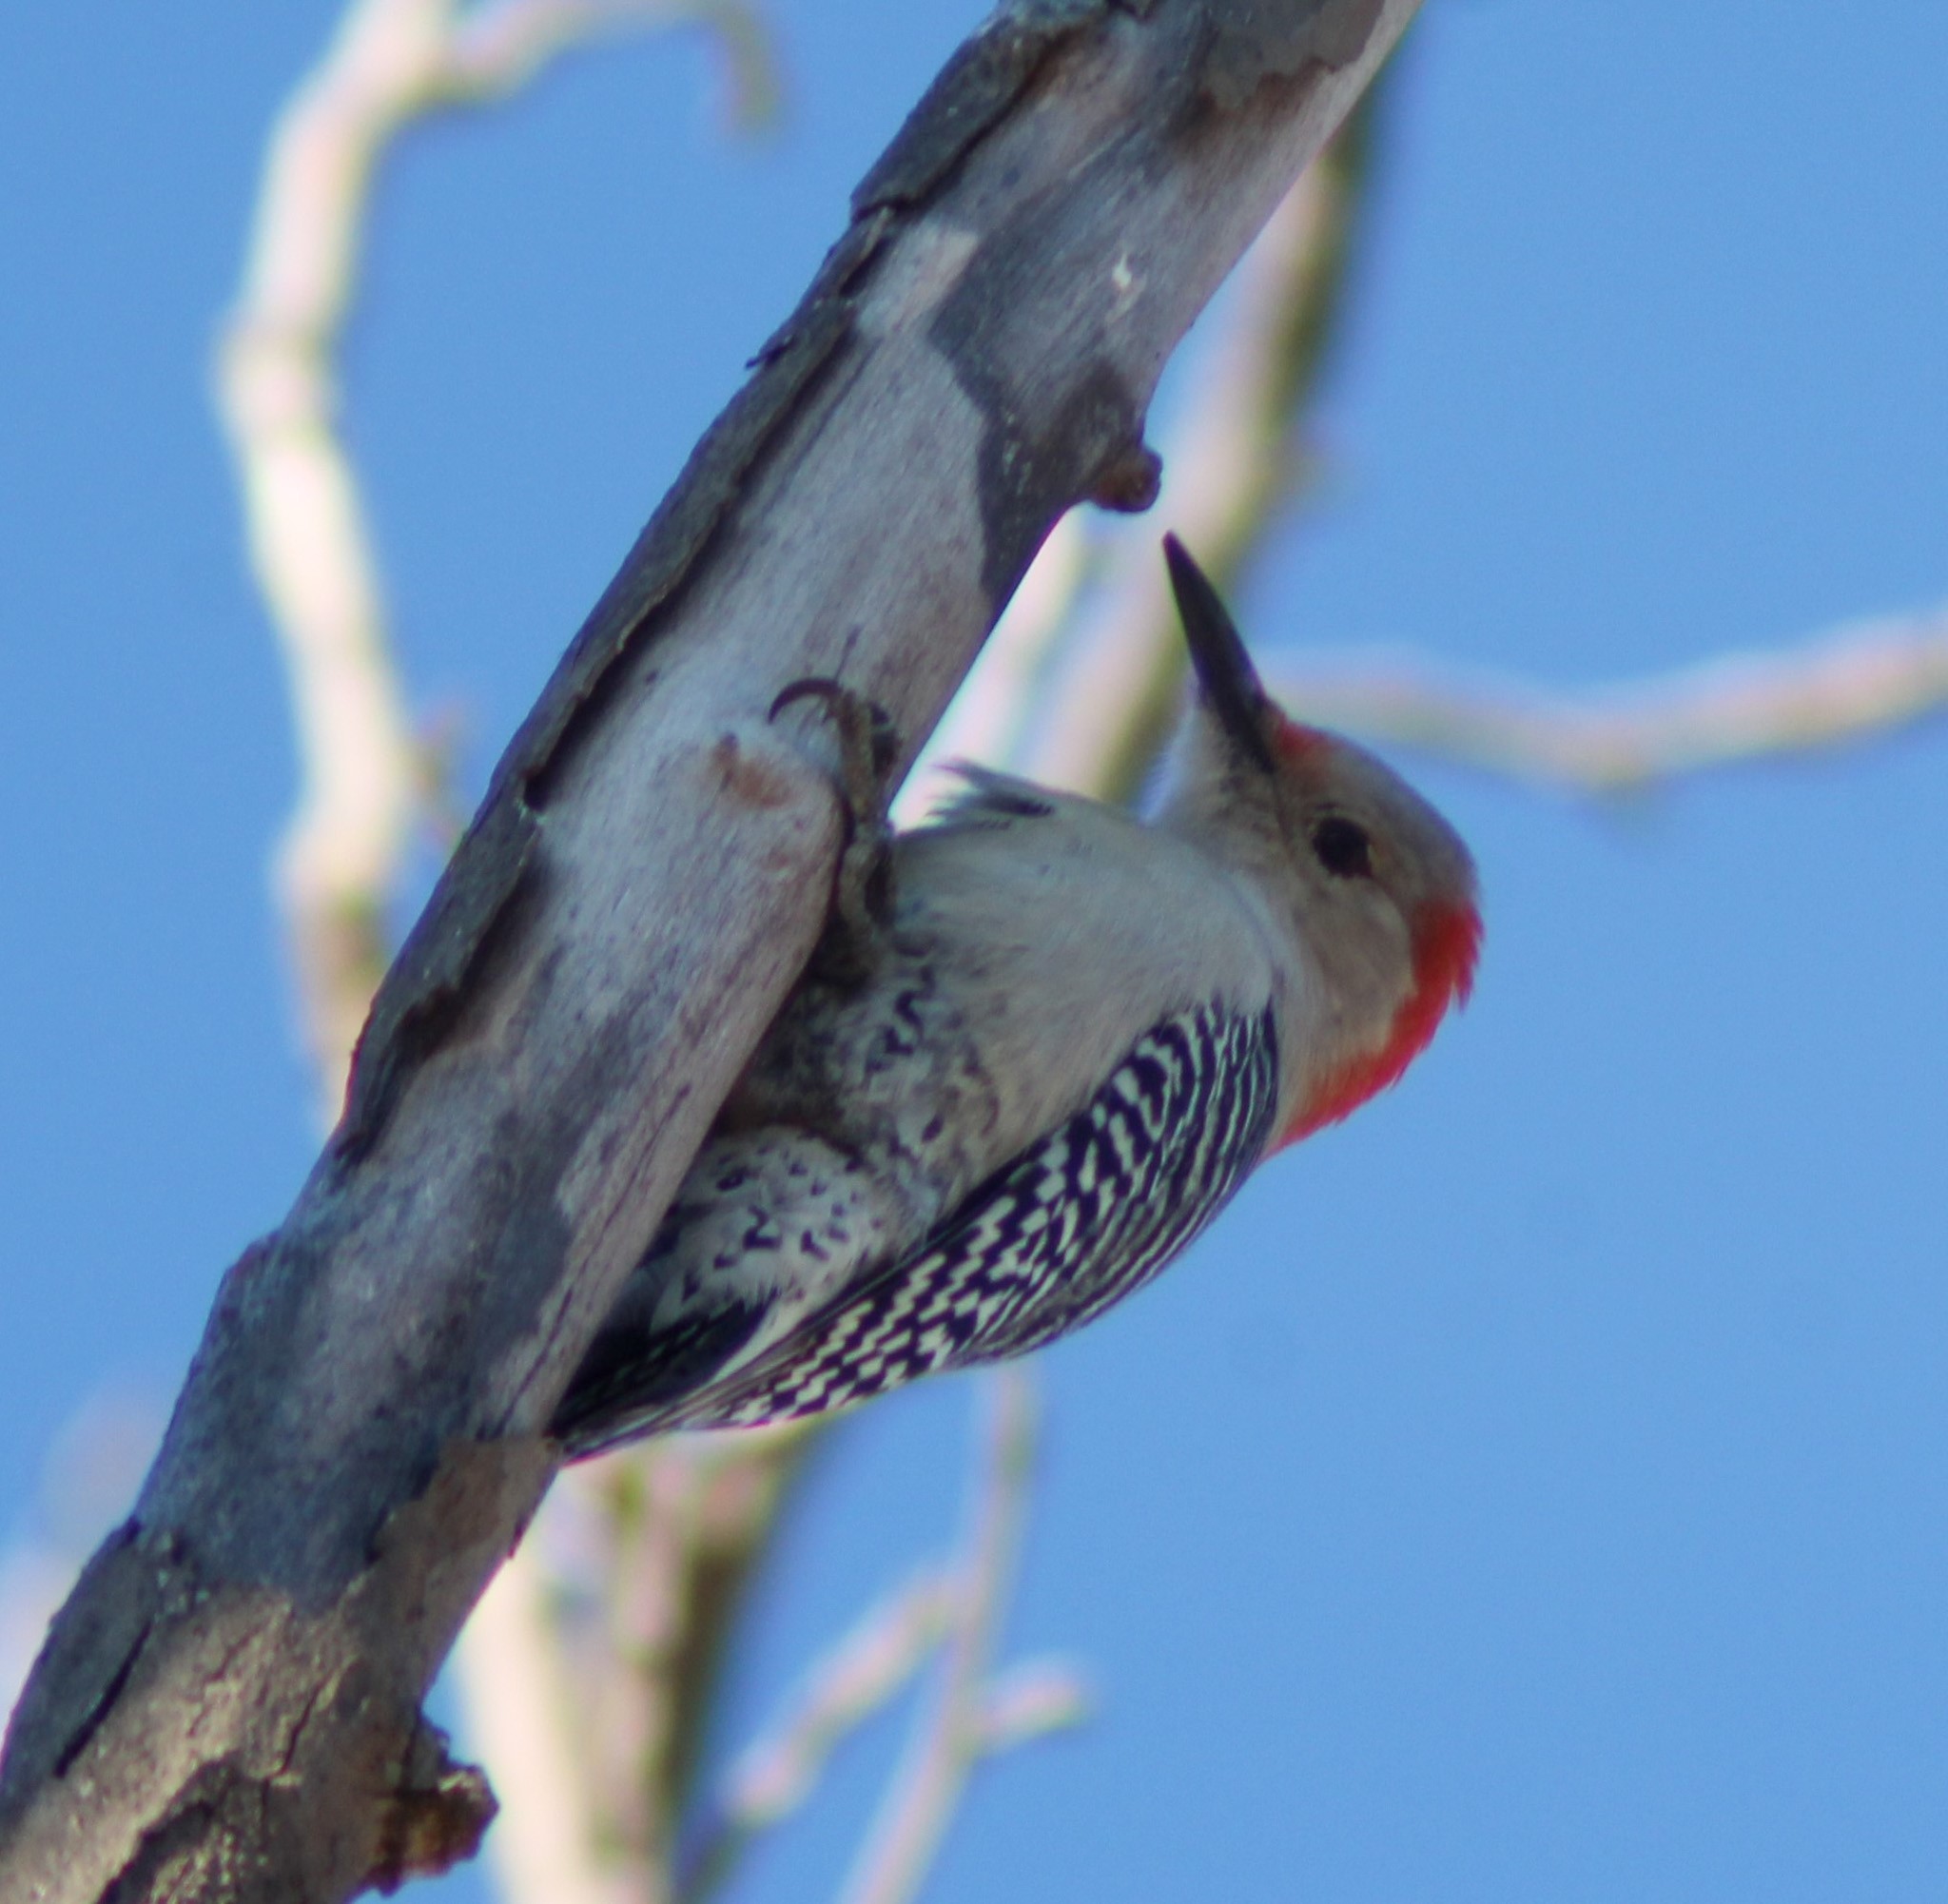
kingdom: Animalia
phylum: Chordata
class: Aves
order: Piciformes
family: Picidae
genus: Melanerpes
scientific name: Melanerpes carolinus
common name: Red-bellied woodpecker
